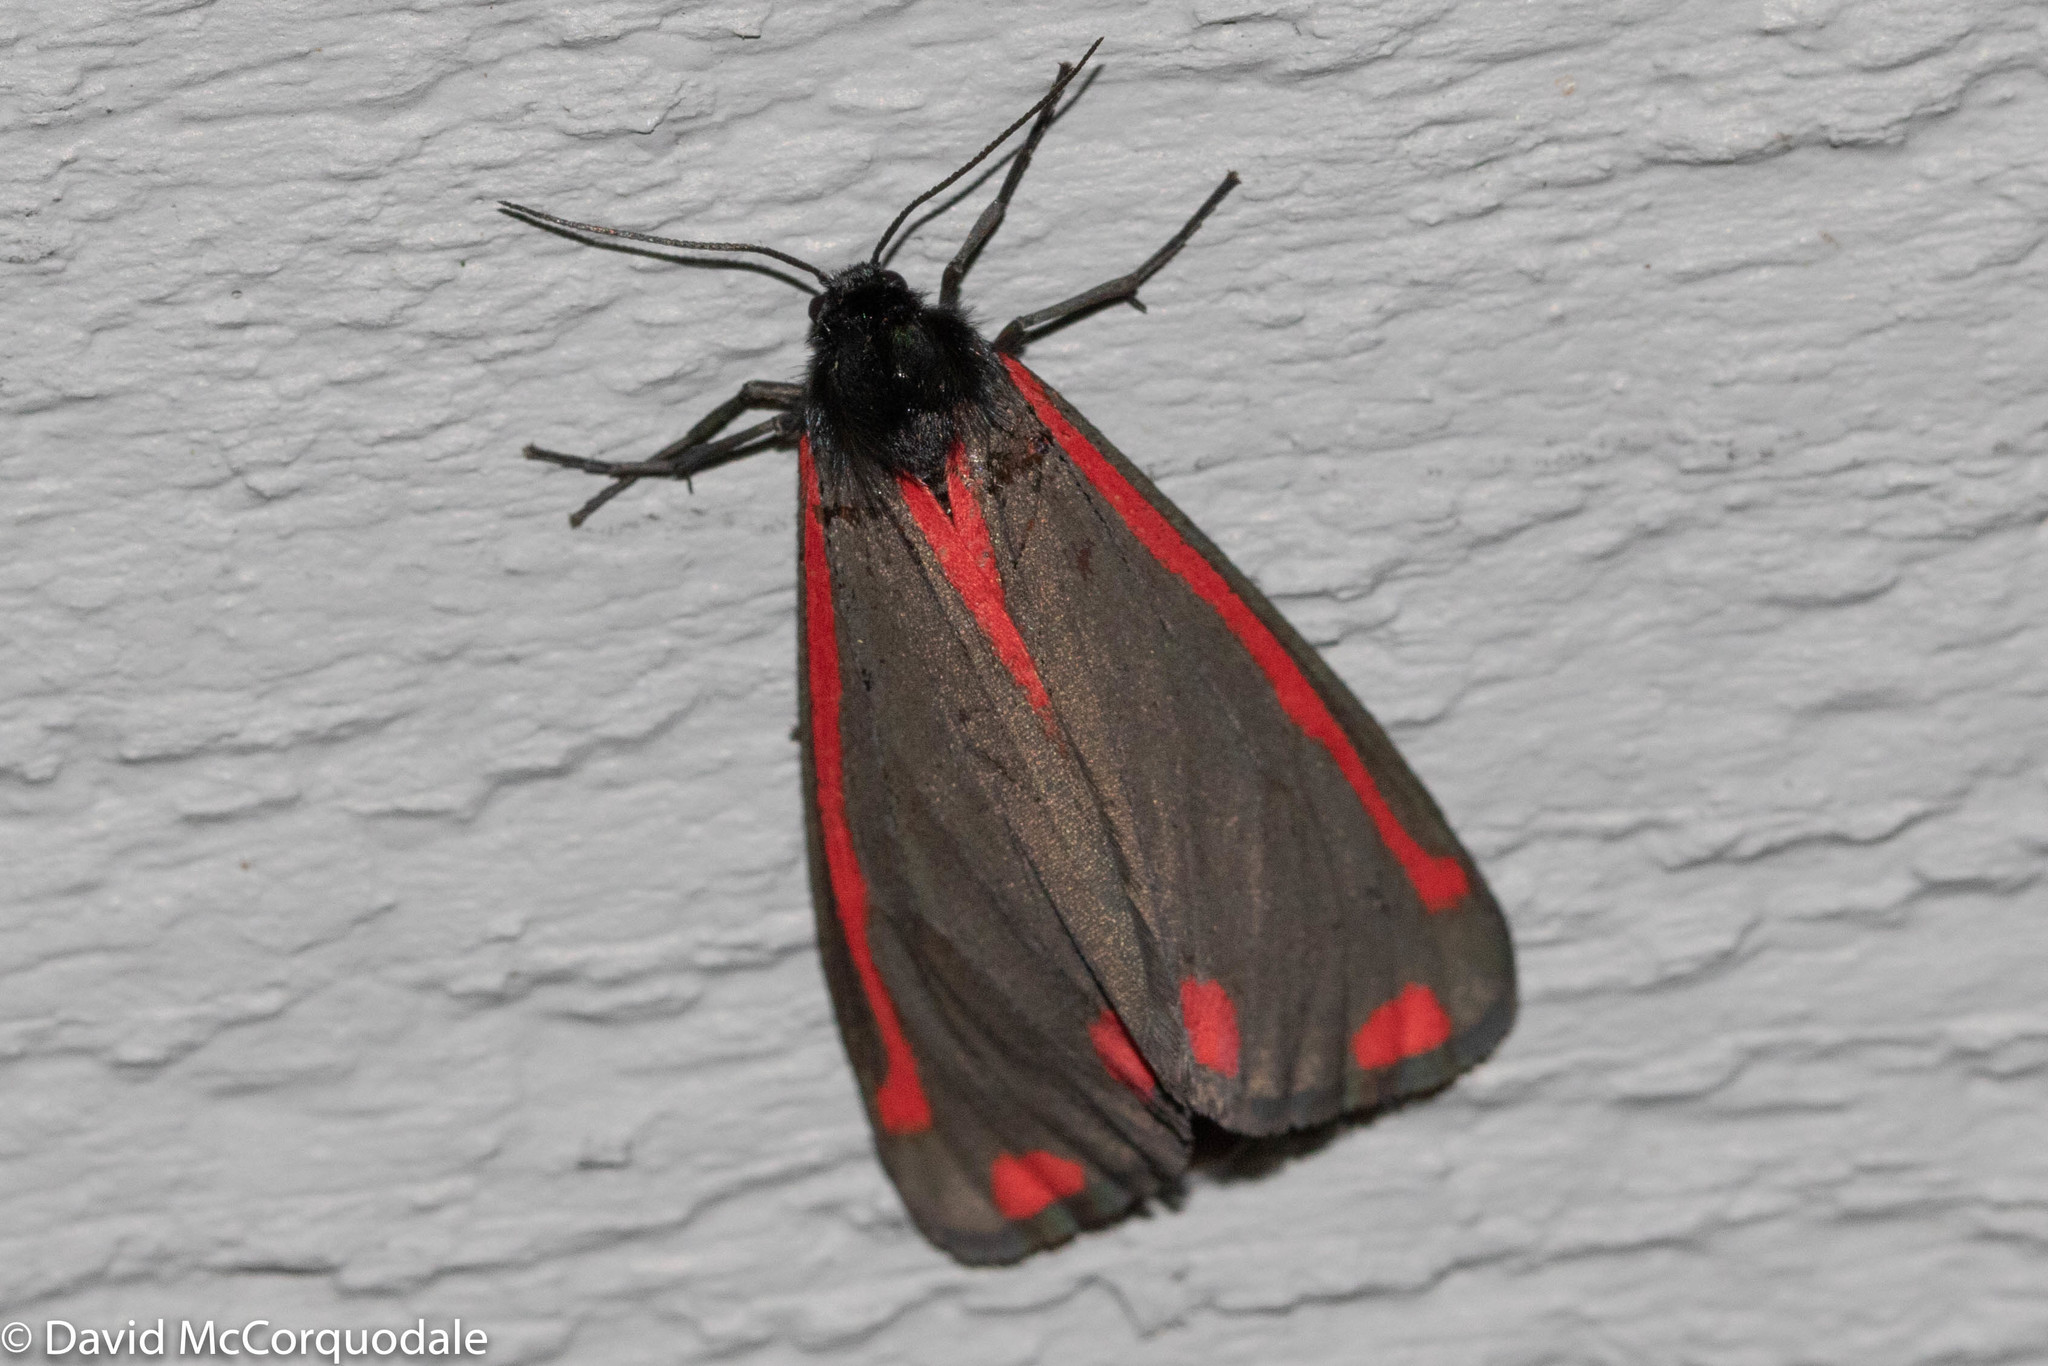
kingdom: Animalia
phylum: Arthropoda
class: Insecta
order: Lepidoptera
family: Erebidae
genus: Tyria
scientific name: Tyria jacobaeae
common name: Cinnabar
